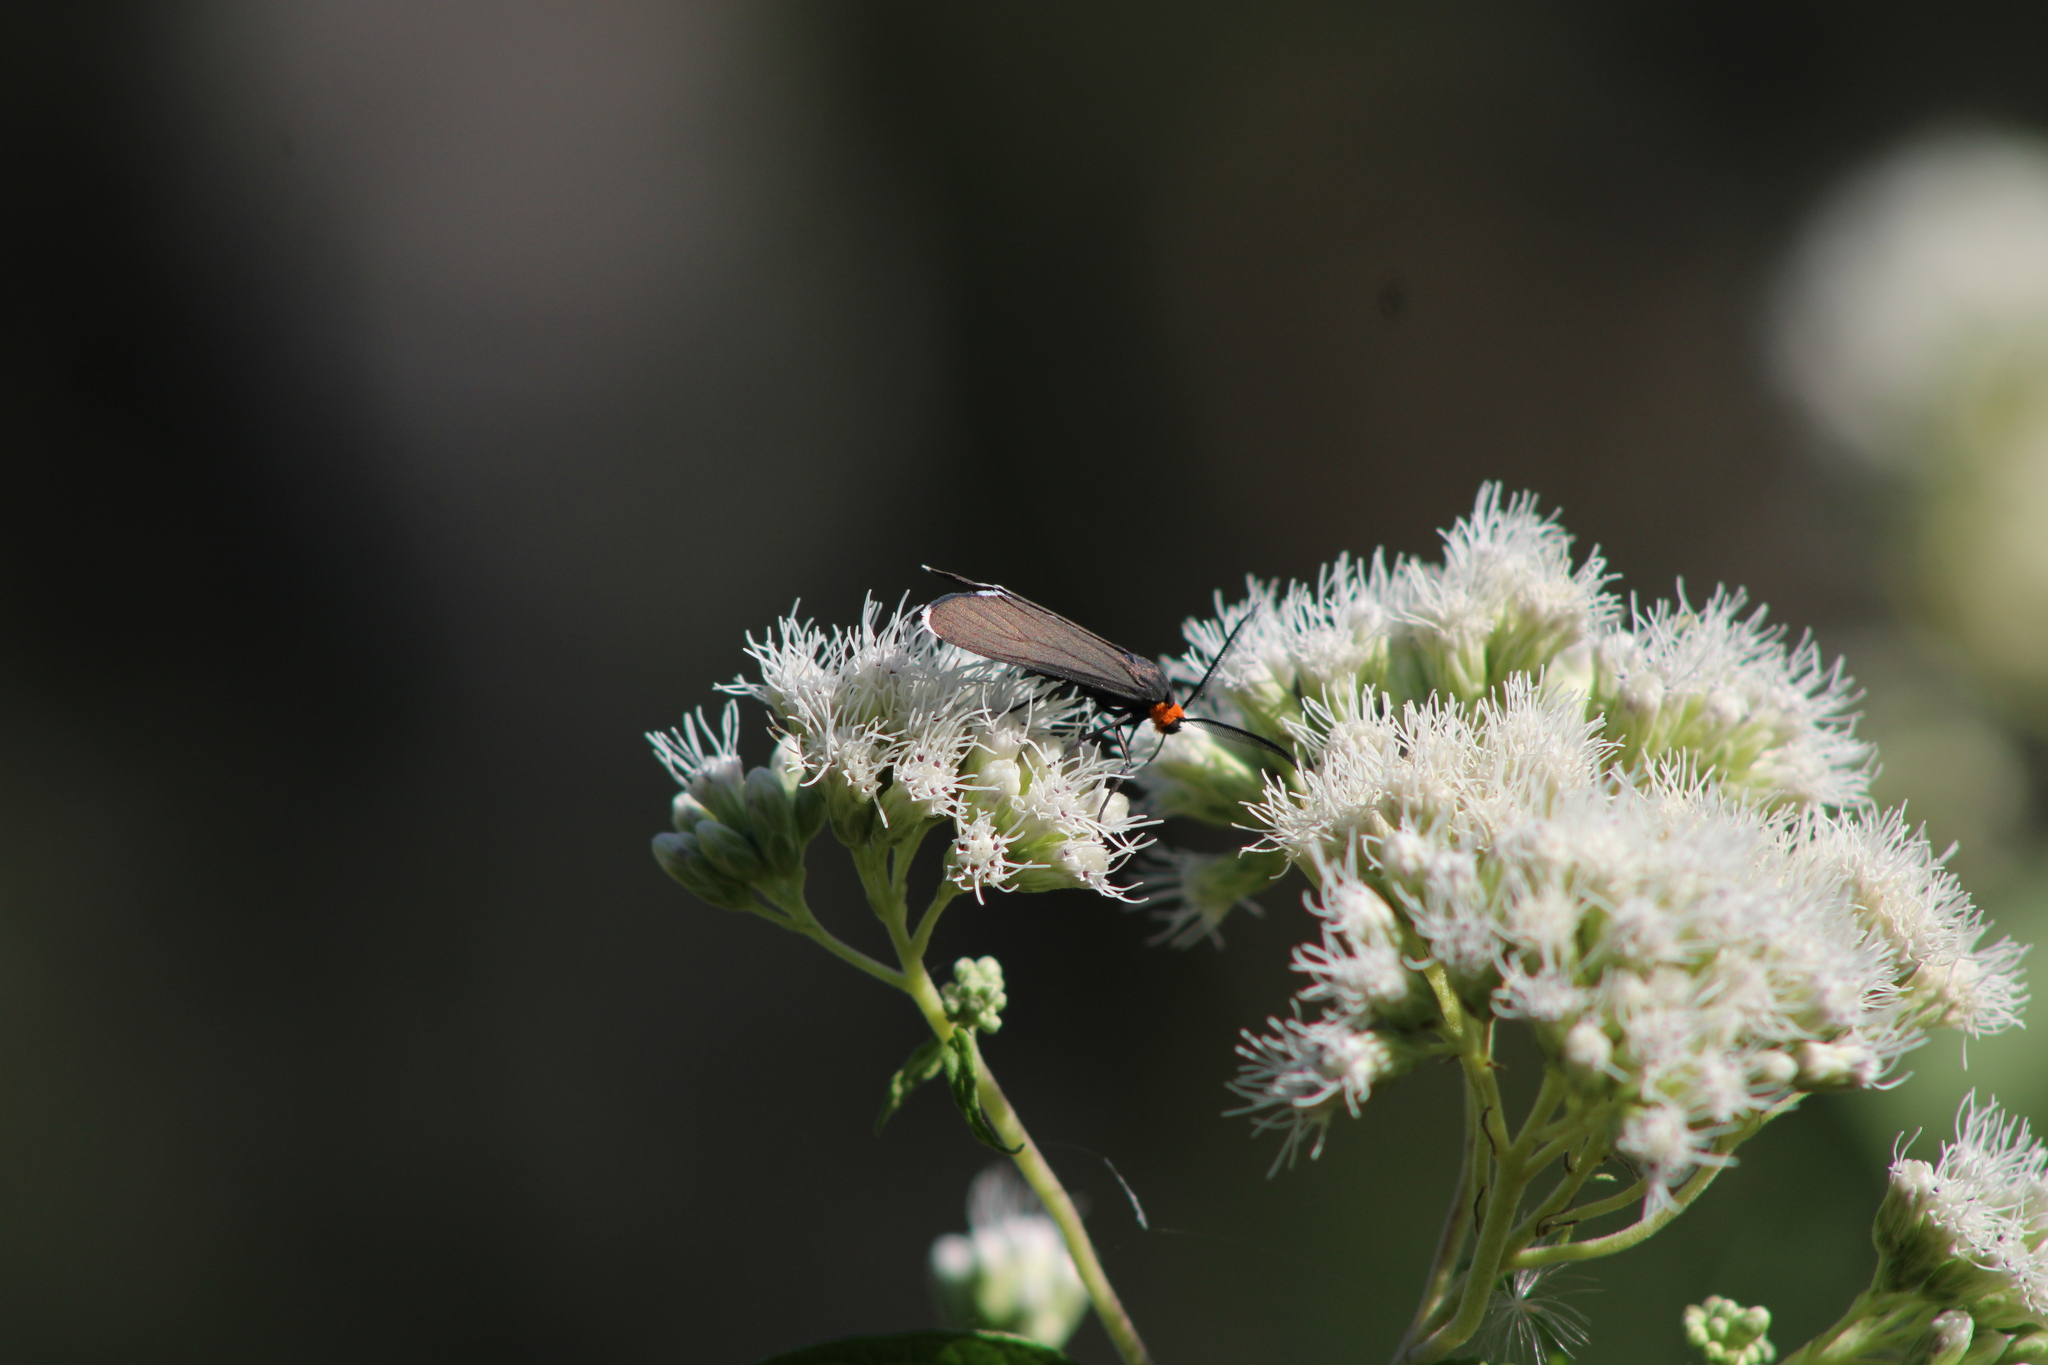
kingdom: Animalia
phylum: Arthropoda
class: Insecta
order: Lepidoptera
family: Erebidae
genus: Ctenucha
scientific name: Ctenucha rubriceps
